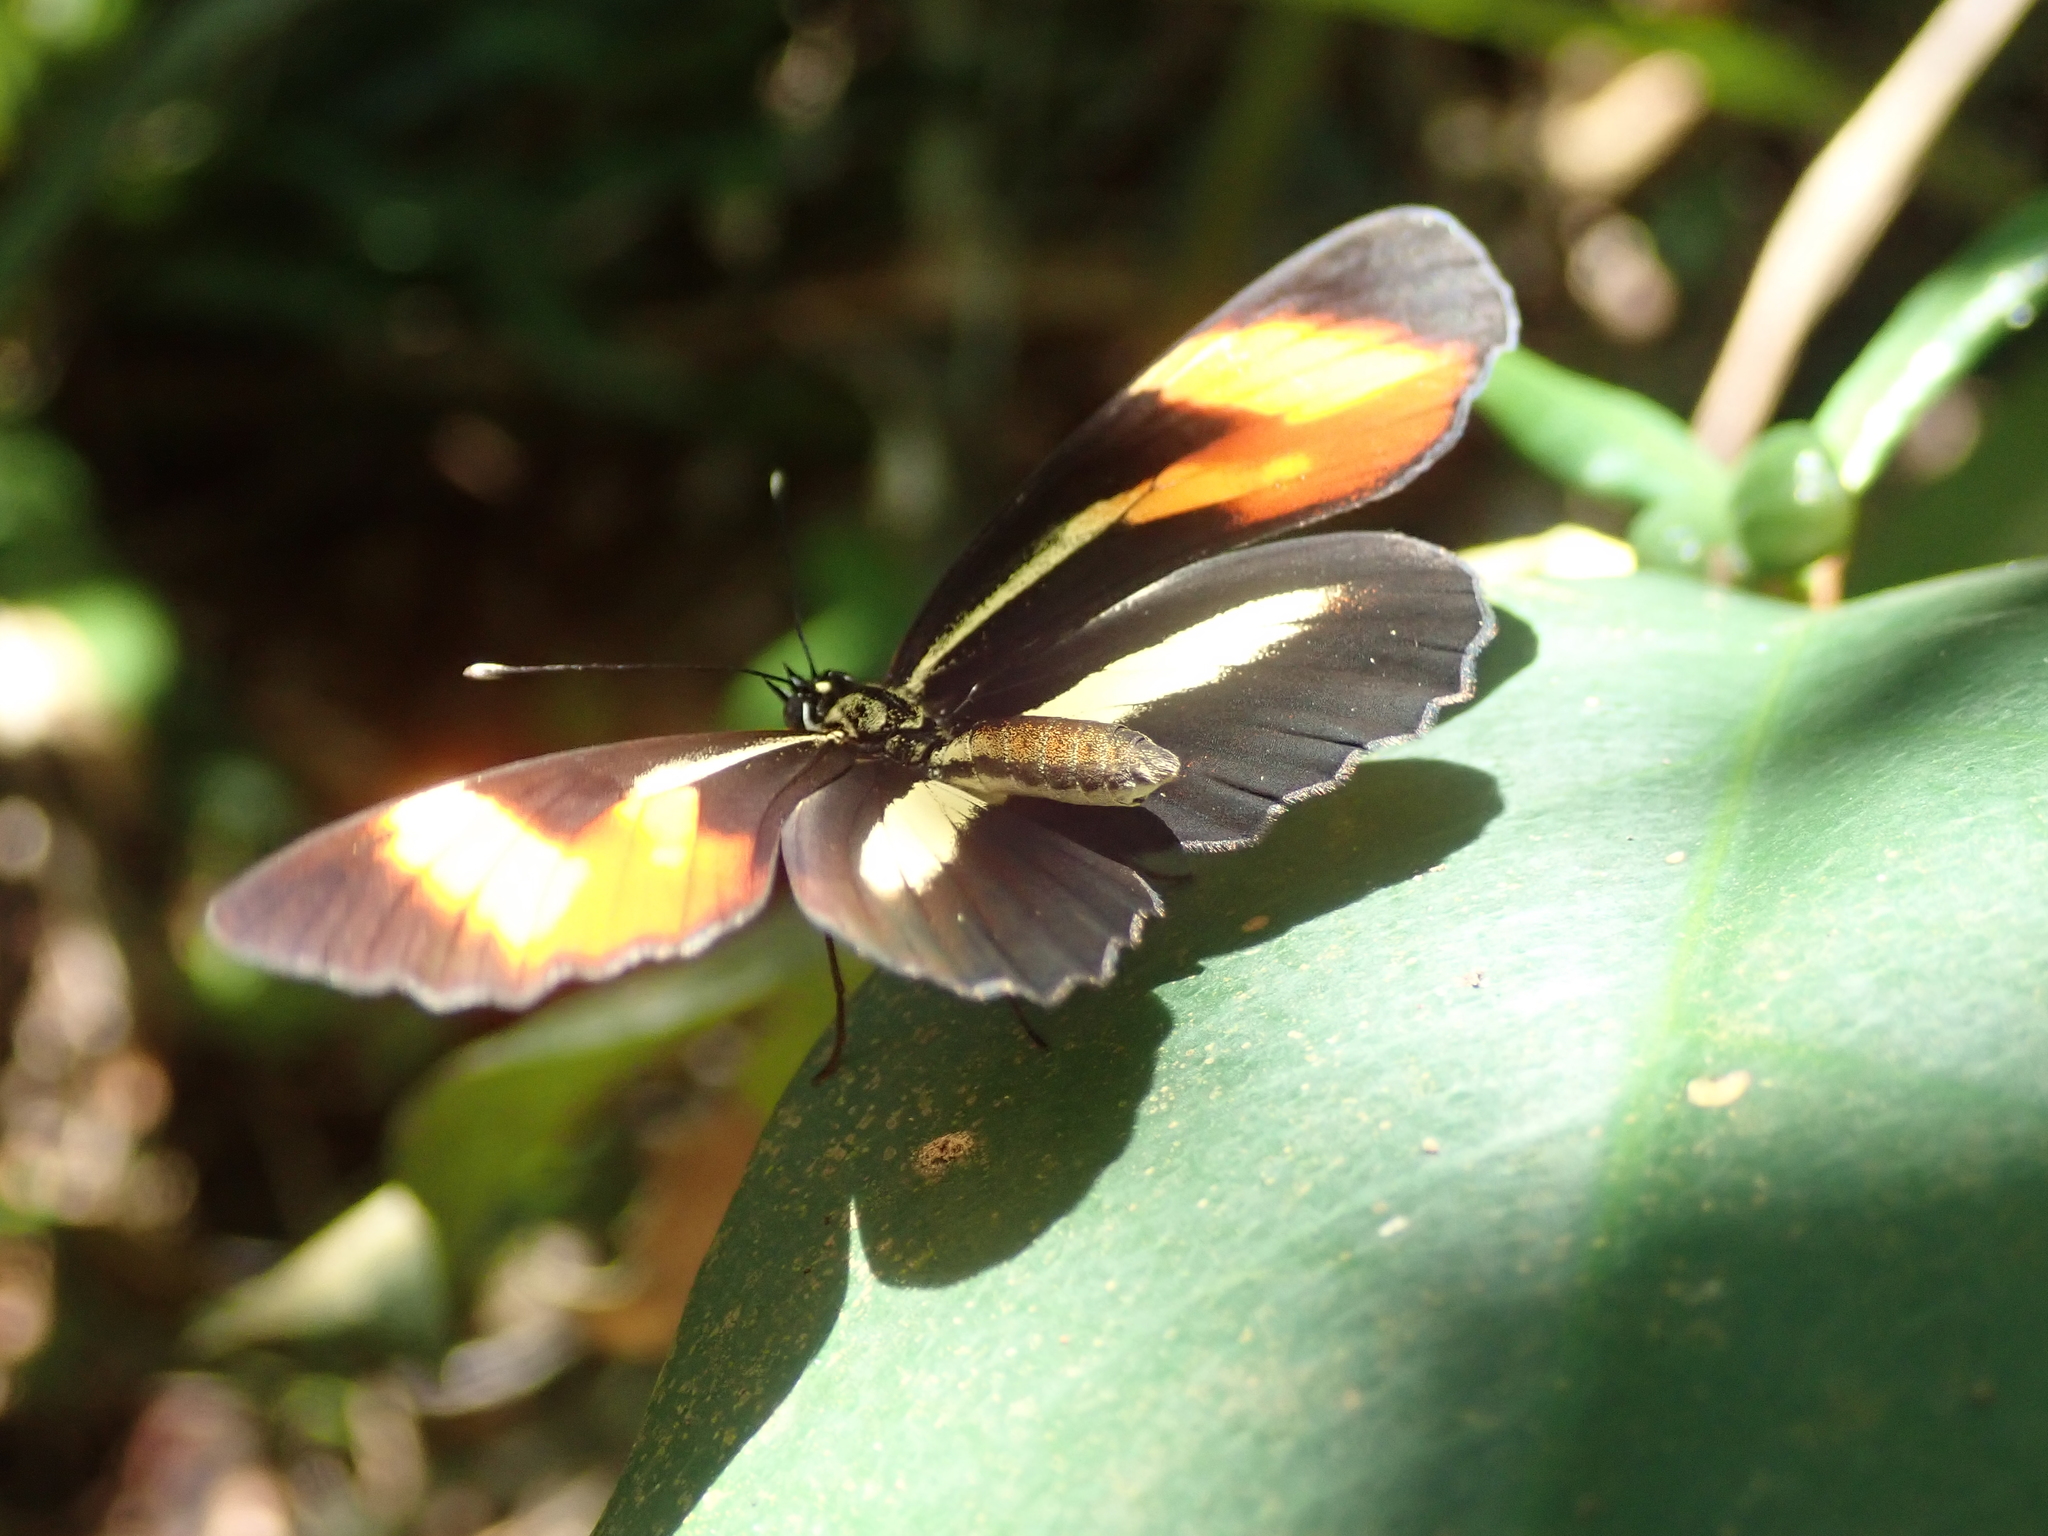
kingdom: Animalia
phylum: Arthropoda
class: Insecta
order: Lepidoptera
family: Nymphalidae
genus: Eresia
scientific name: Eresia lansdorfi
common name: Lansdorf's crescent
